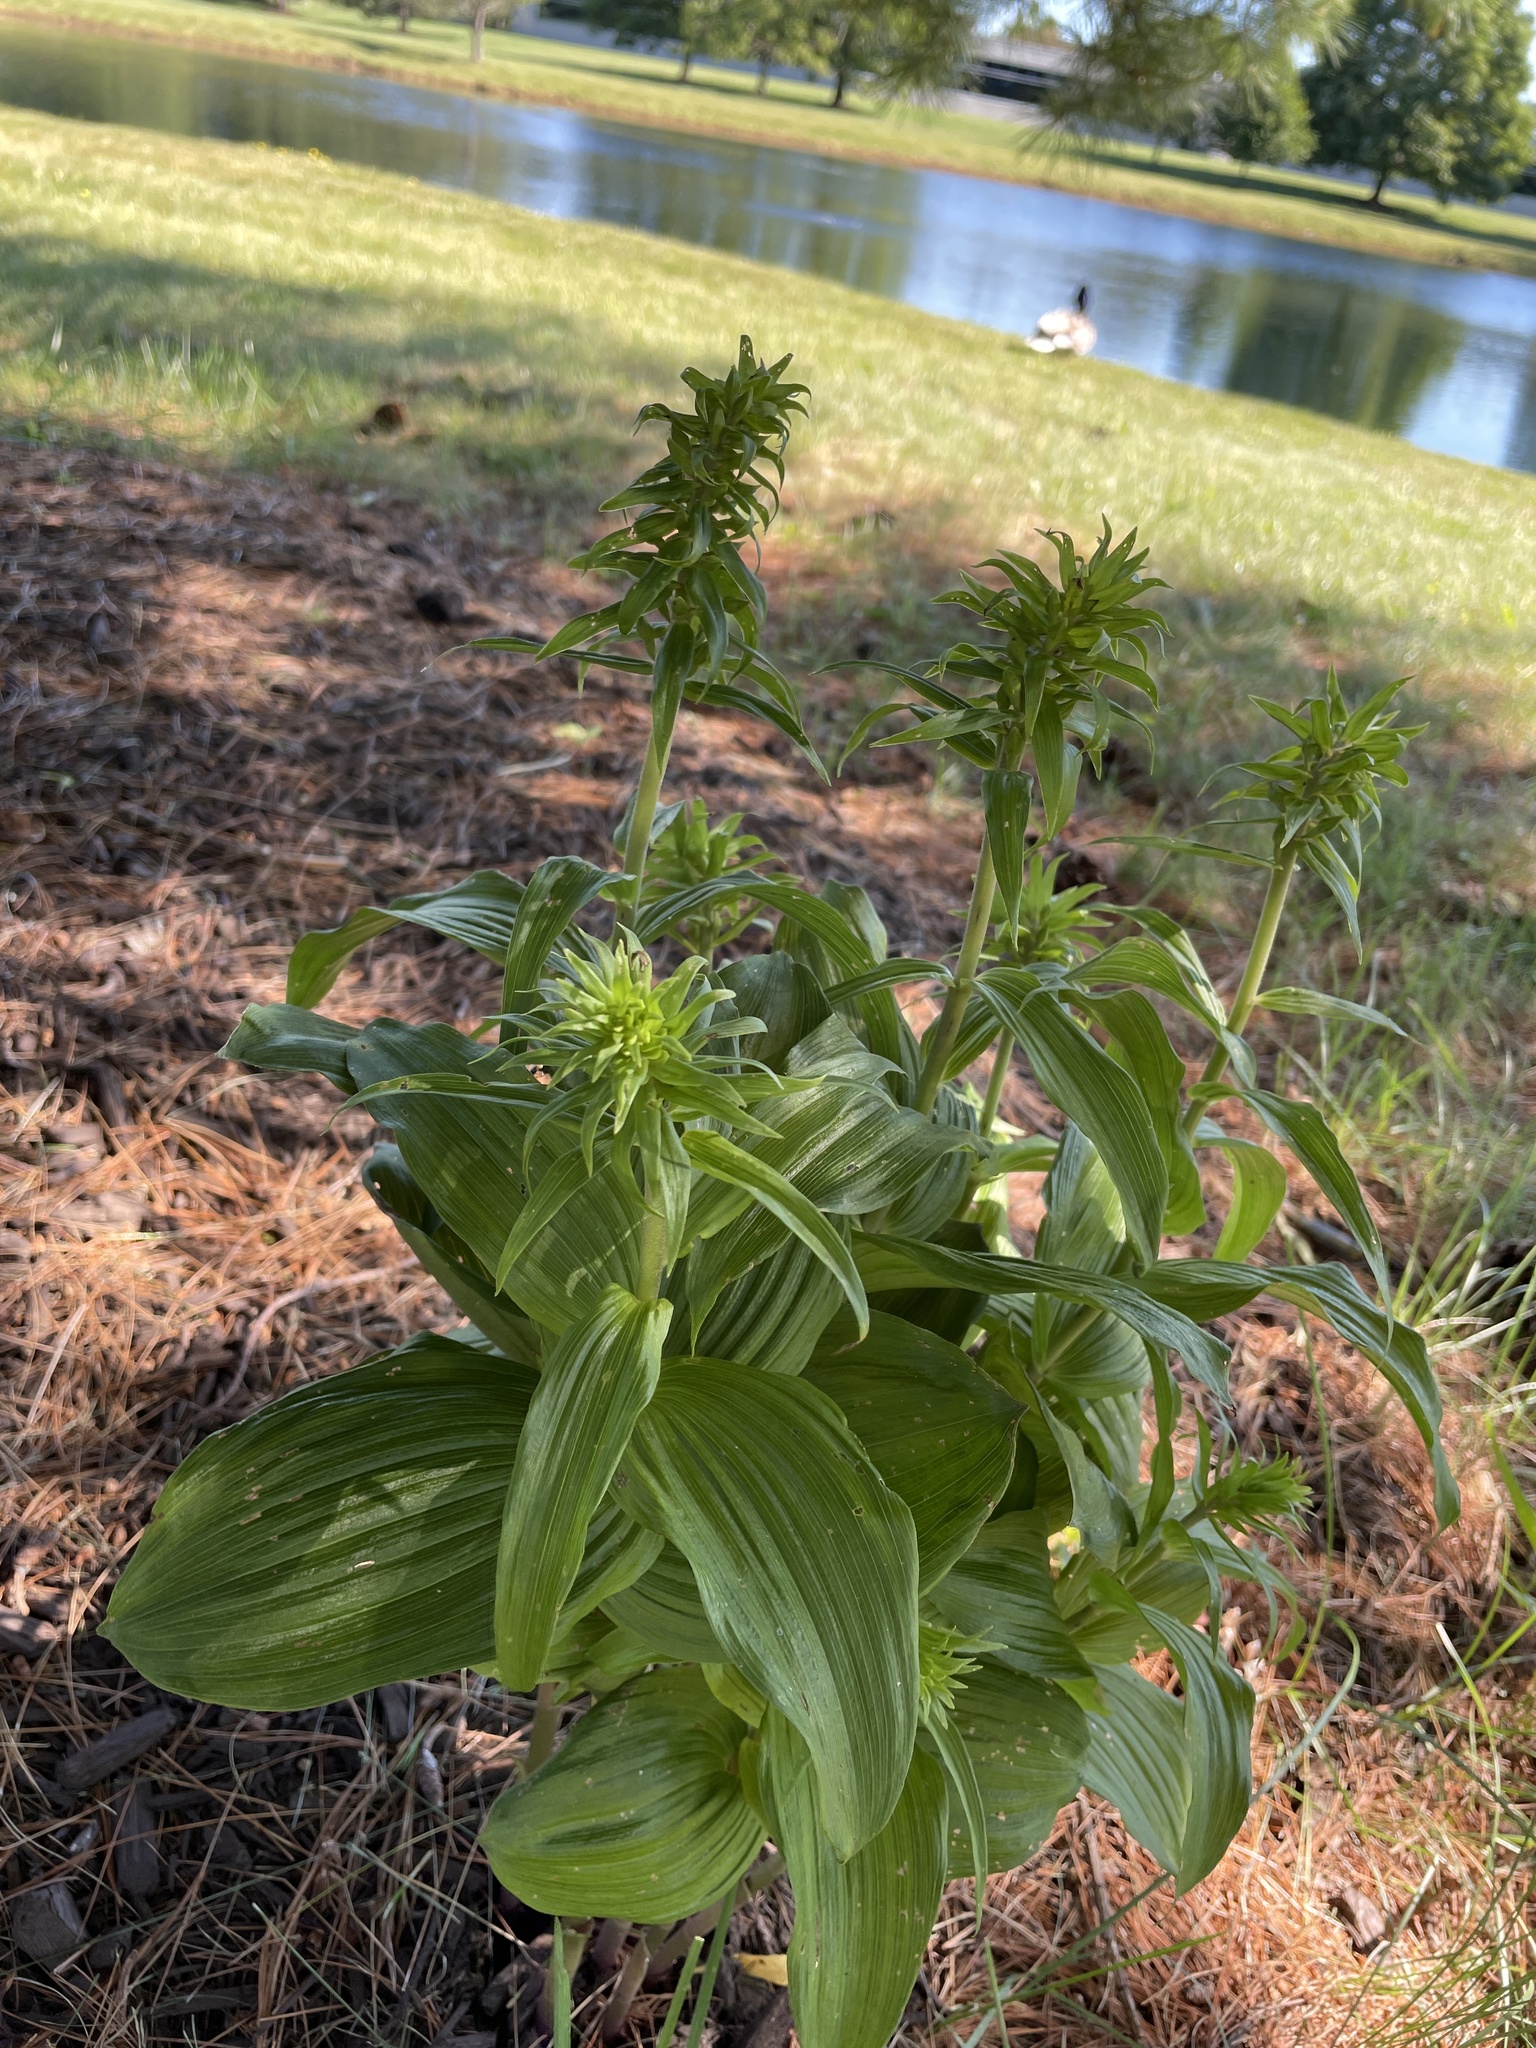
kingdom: Plantae
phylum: Tracheophyta
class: Liliopsida
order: Liliales
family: Melanthiaceae
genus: Veratrum
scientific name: Veratrum viride
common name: American false hellebore
